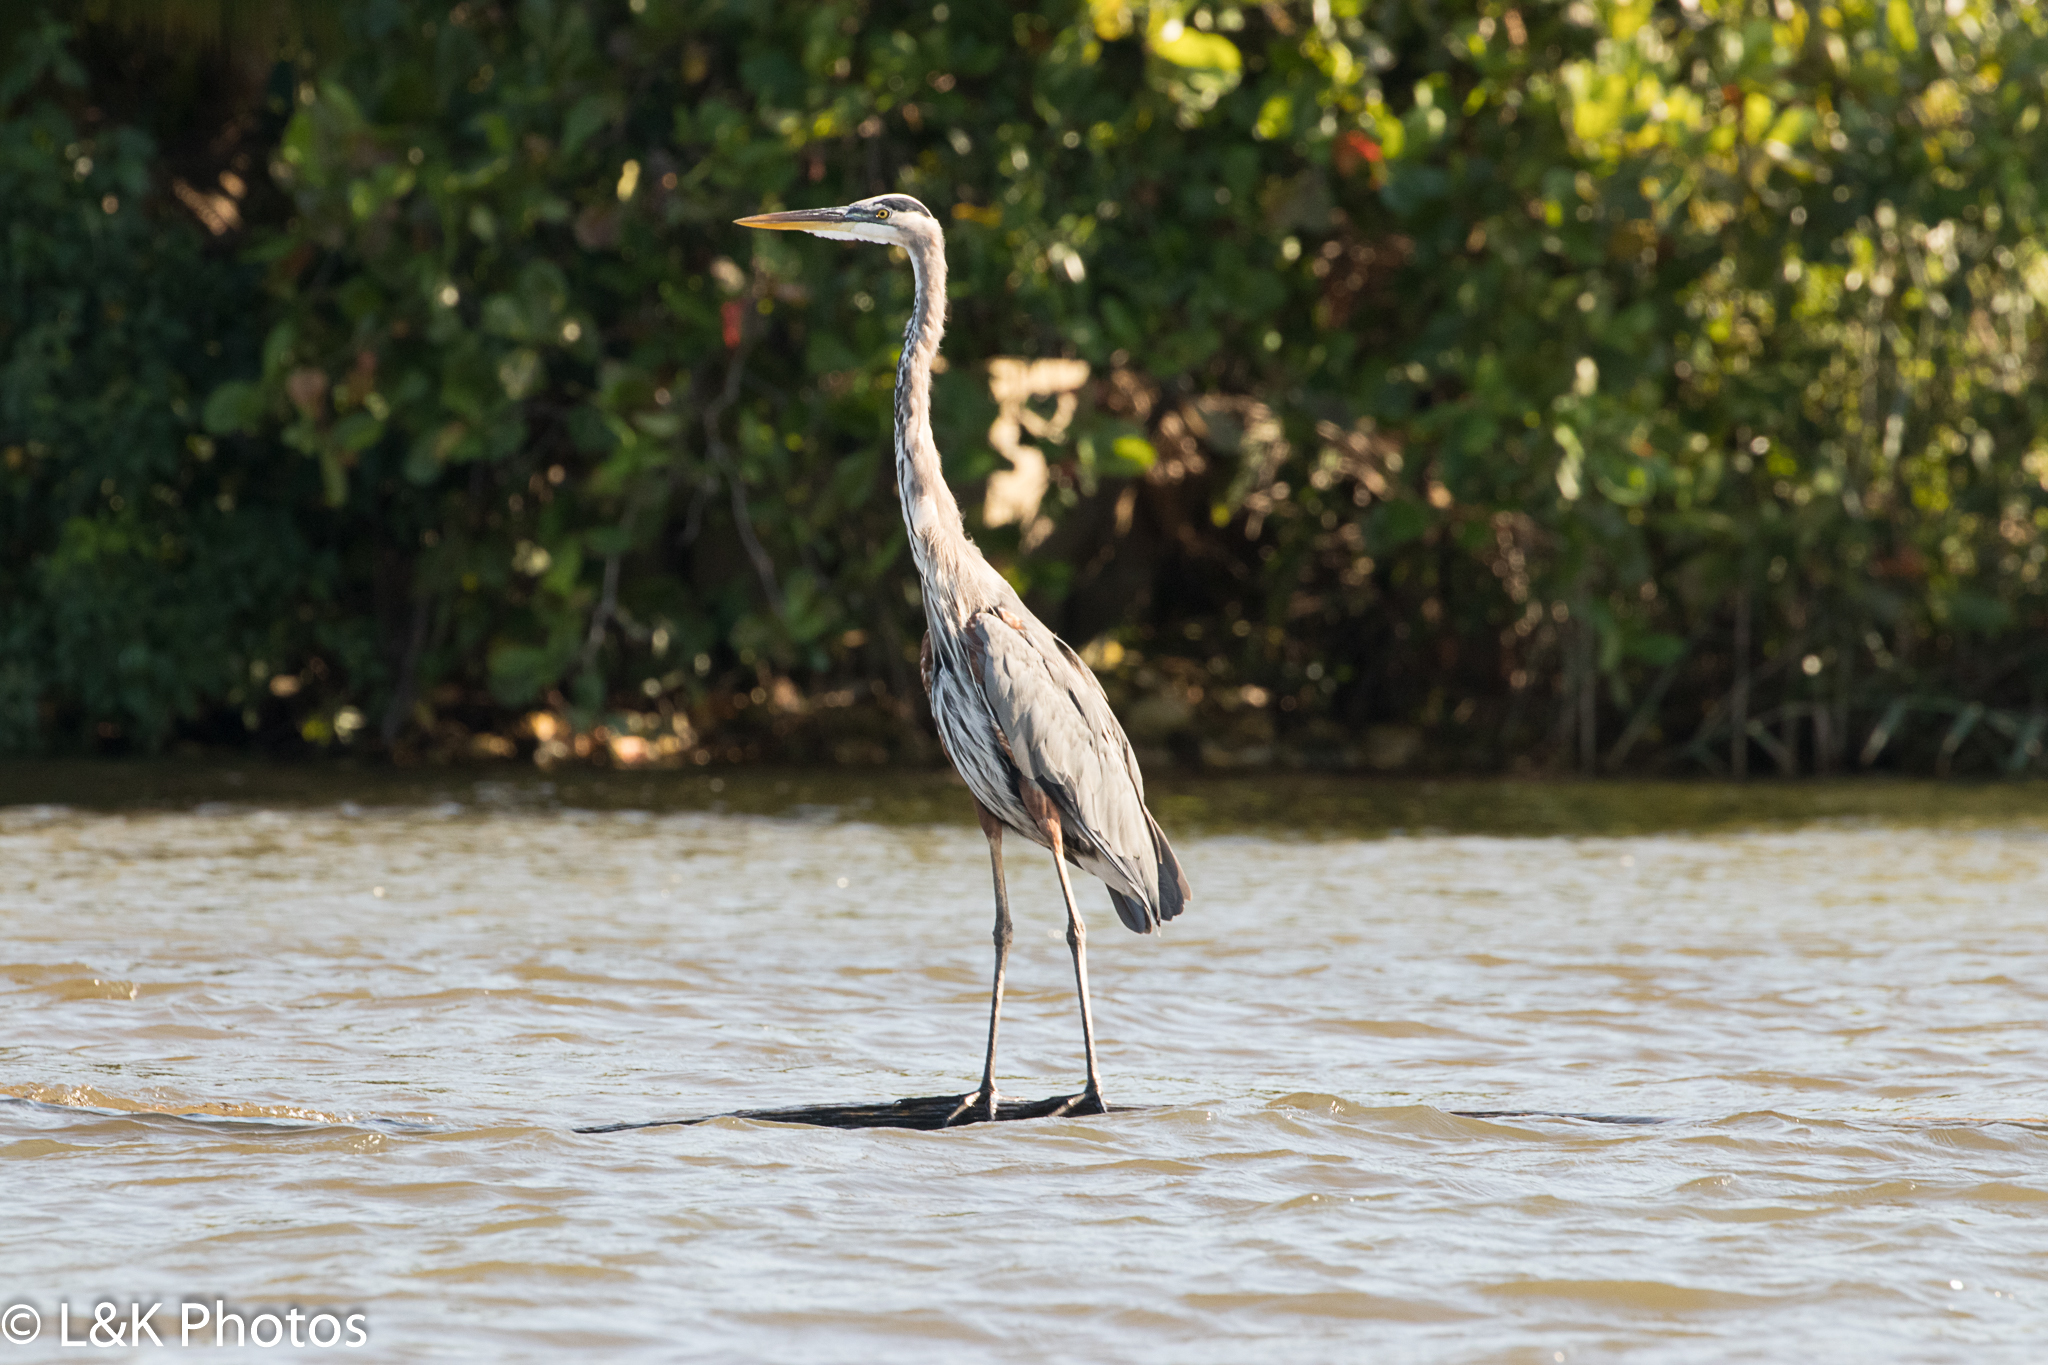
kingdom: Animalia
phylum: Chordata
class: Aves
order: Pelecaniformes
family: Ardeidae
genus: Ardea
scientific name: Ardea herodias
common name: Great blue heron
